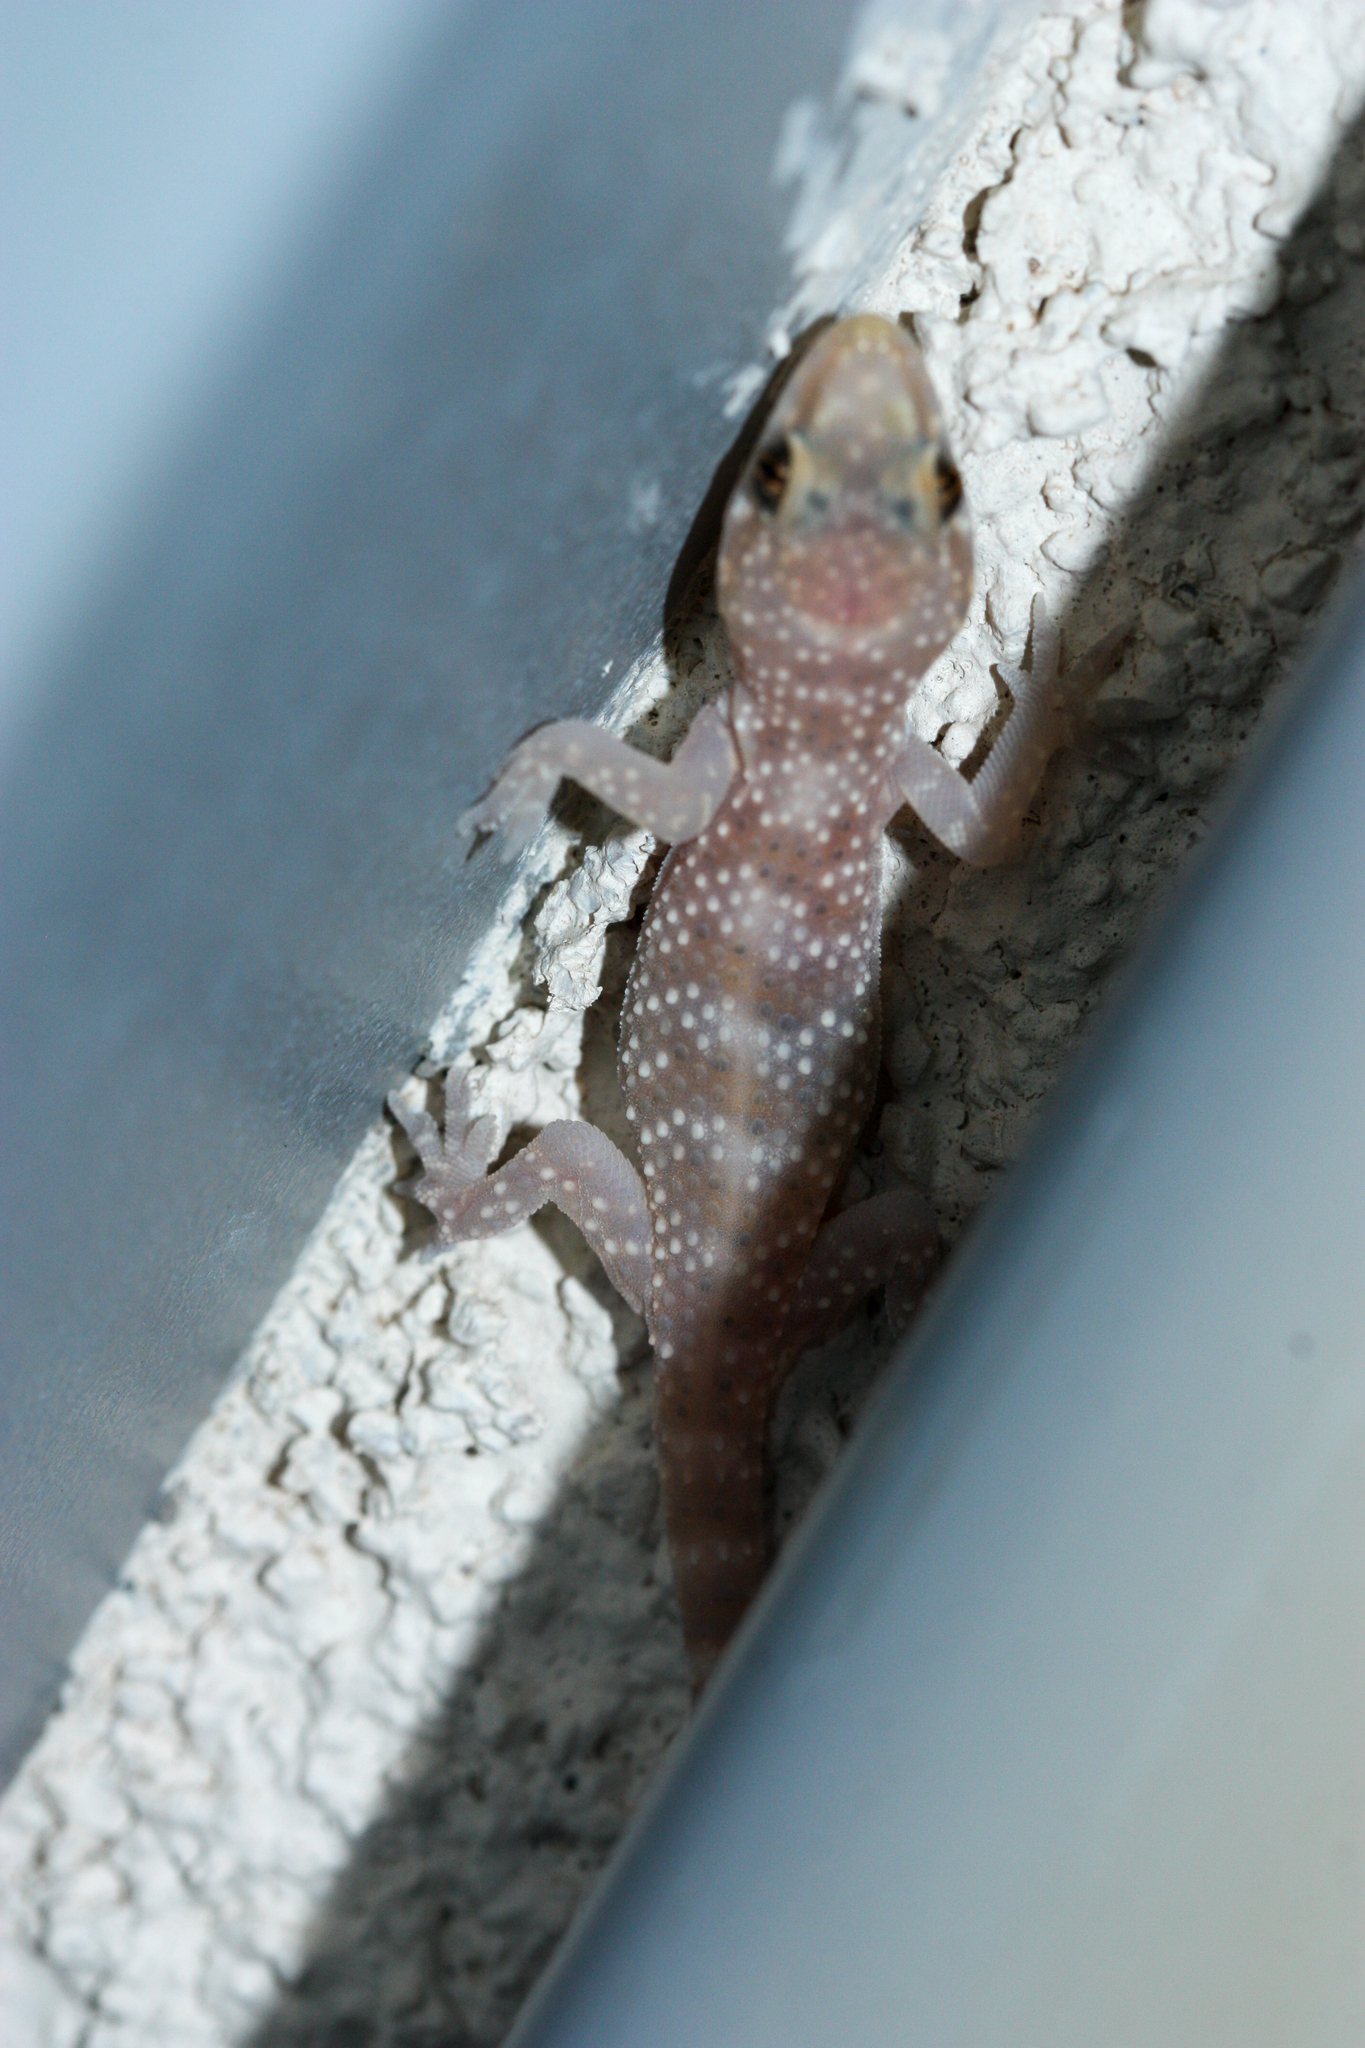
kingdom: Animalia
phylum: Chordata
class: Squamata
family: Gekkonidae
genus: Hemidactylus
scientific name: Hemidactylus turcicus
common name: Turkish gecko
